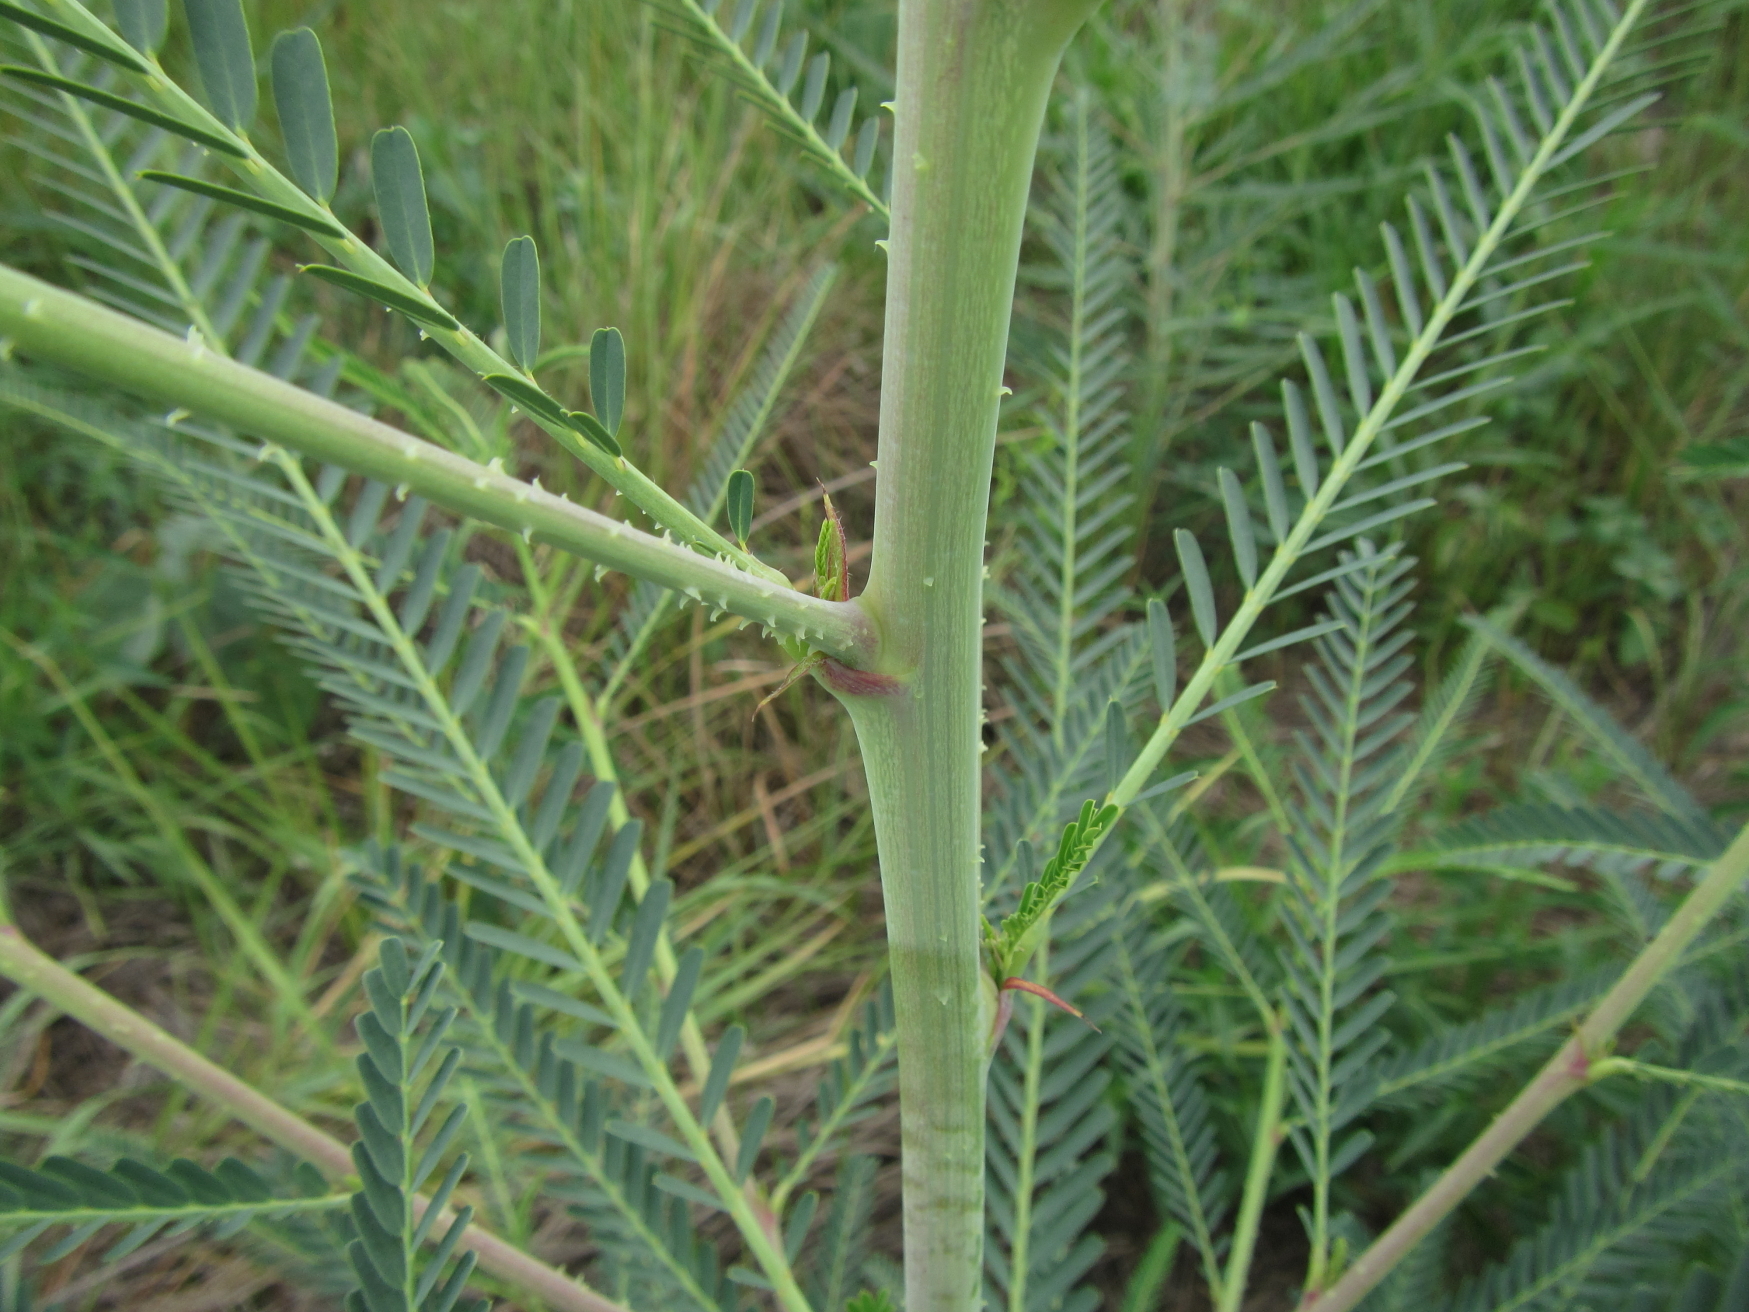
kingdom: Plantae
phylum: Tracheophyta
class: Magnoliopsida
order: Fabales
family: Fabaceae
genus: Sesbania
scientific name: Sesbania bispinosa
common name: Sesbania pea
